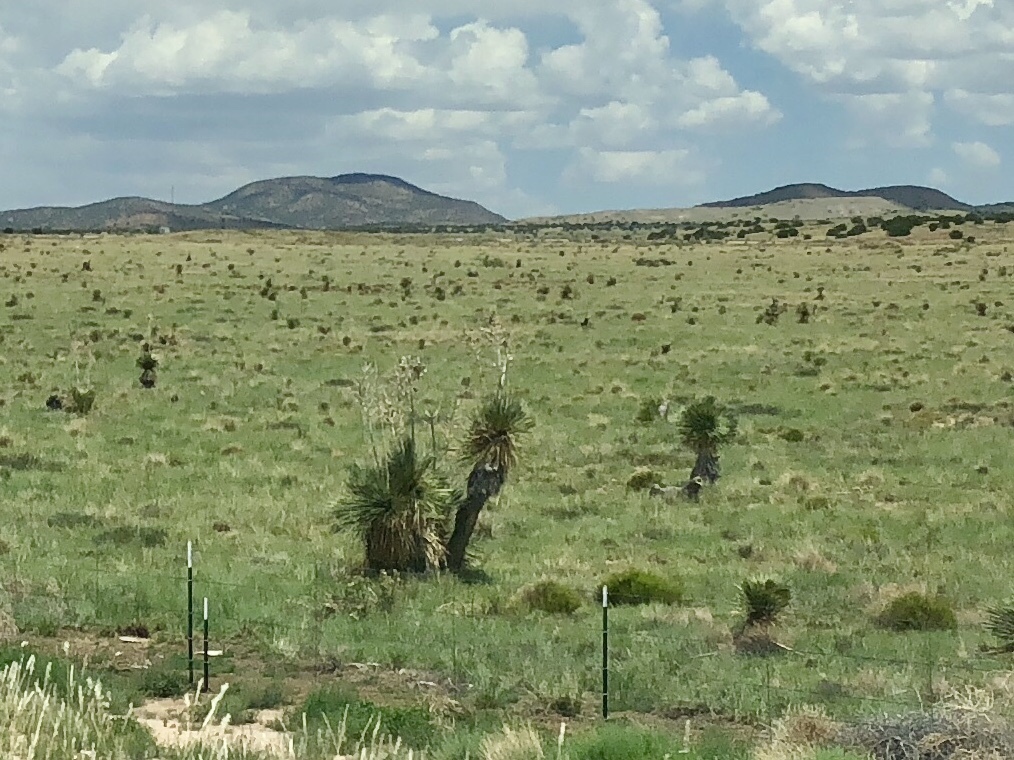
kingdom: Plantae
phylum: Tracheophyta
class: Liliopsida
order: Asparagales
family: Asparagaceae
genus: Yucca
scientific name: Yucca elata
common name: Palmella
